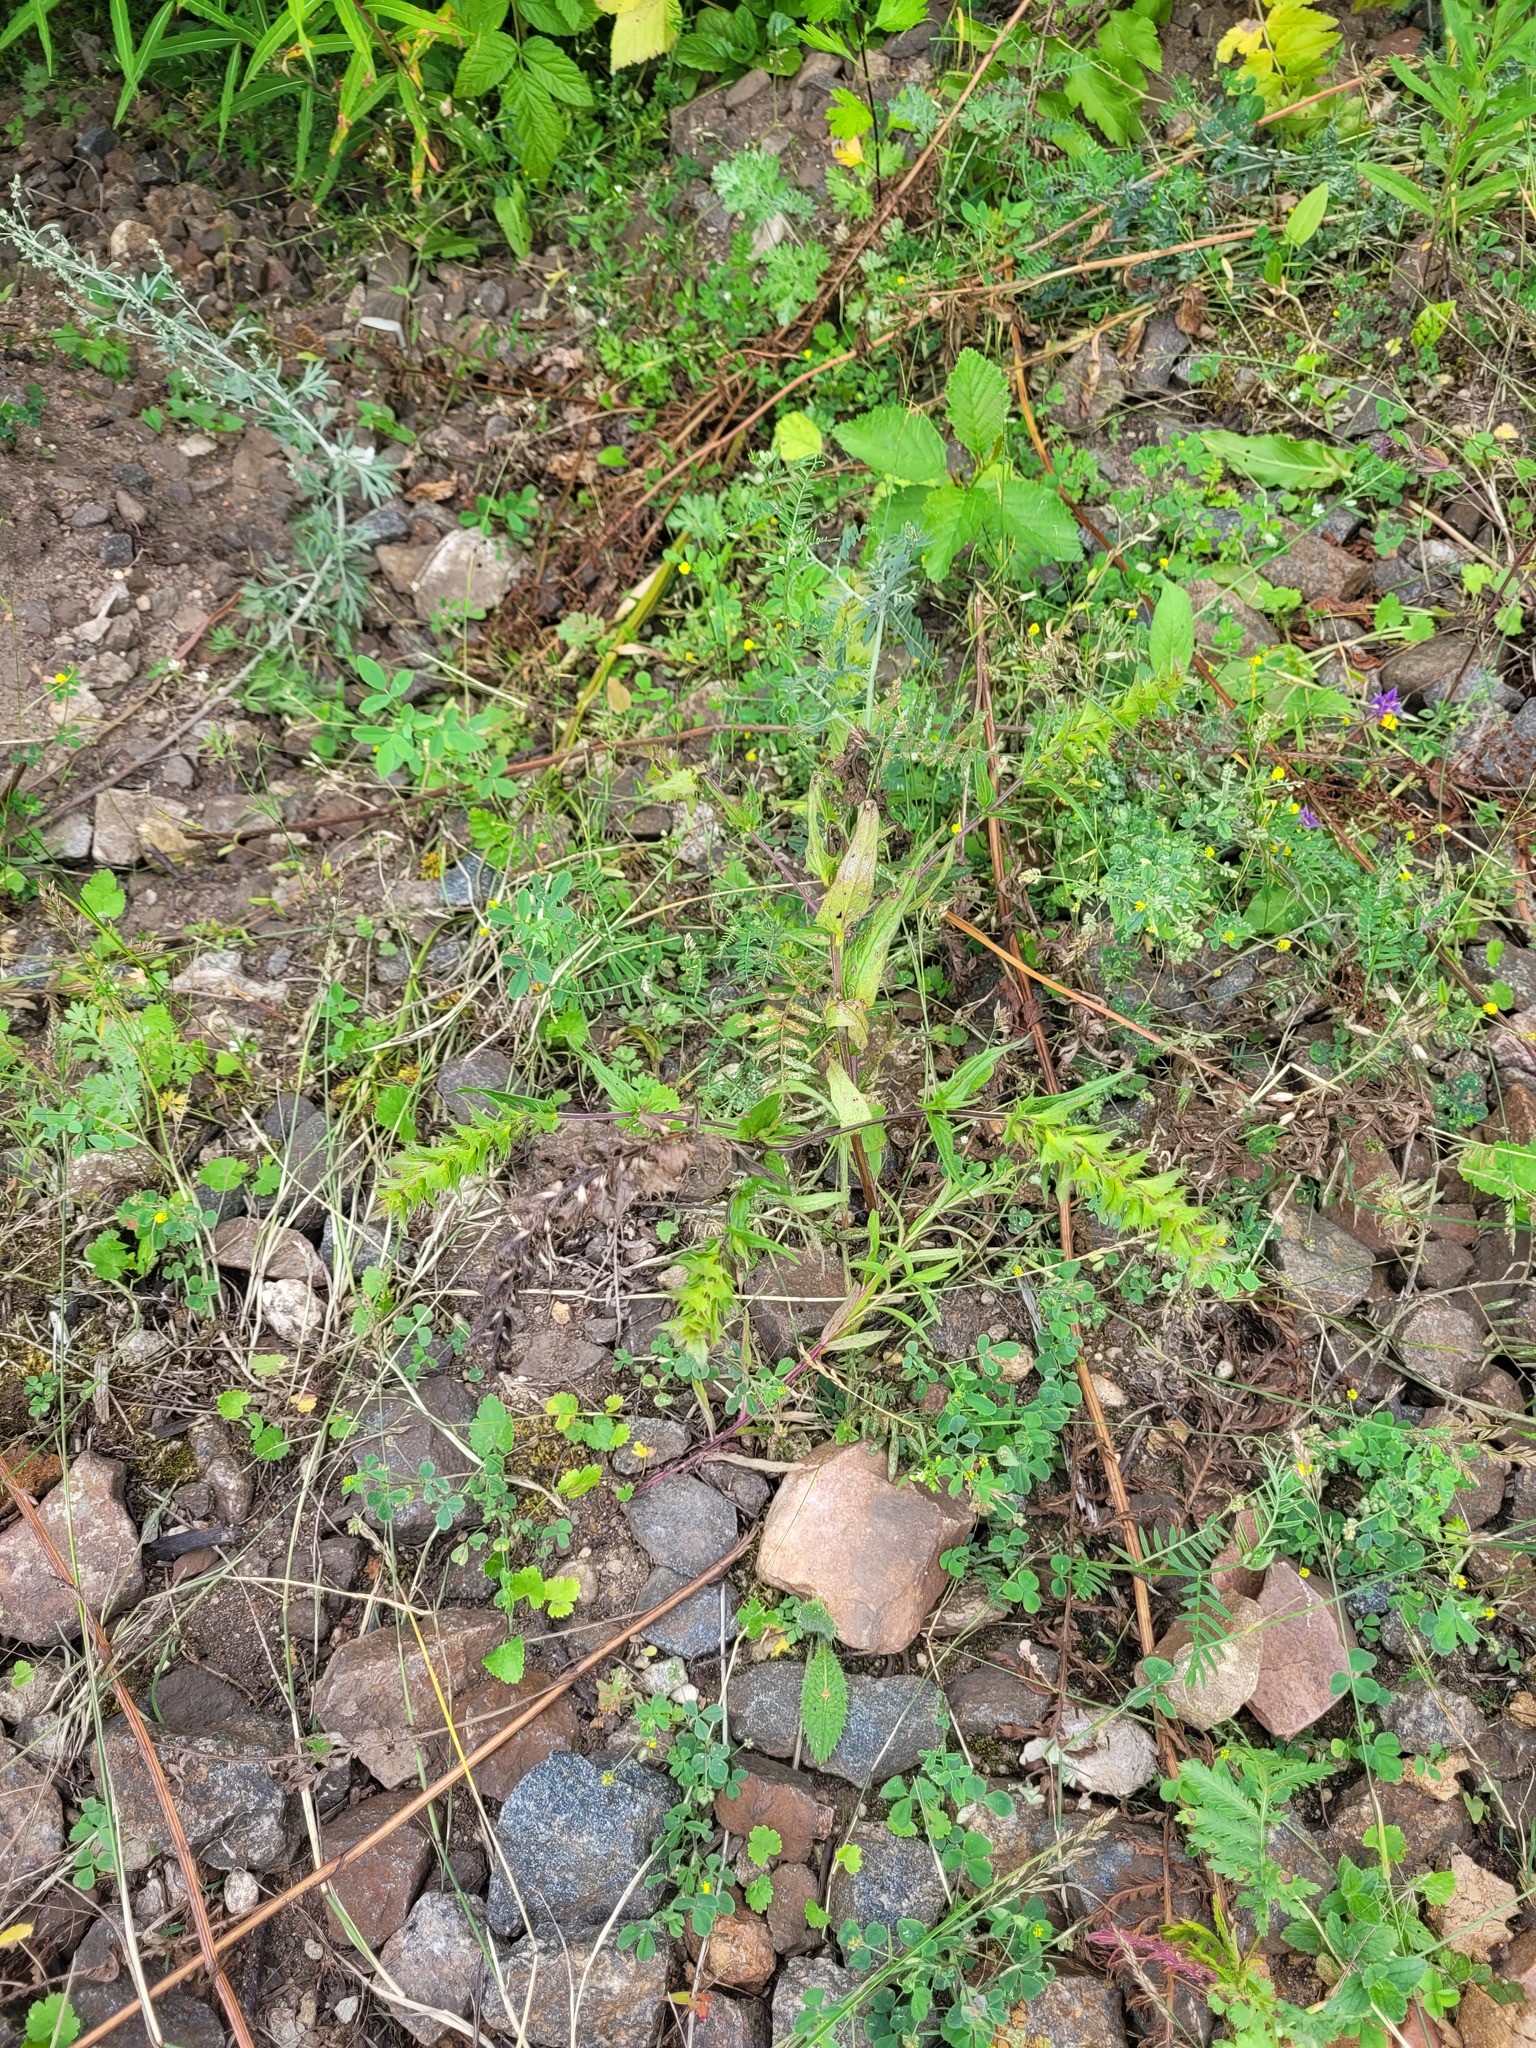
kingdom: Plantae
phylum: Tracheophyta
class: Magnoliopsida
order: Lamiales
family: Orobanchaceae
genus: Melampyrum
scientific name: Melampyrum nemorosum
